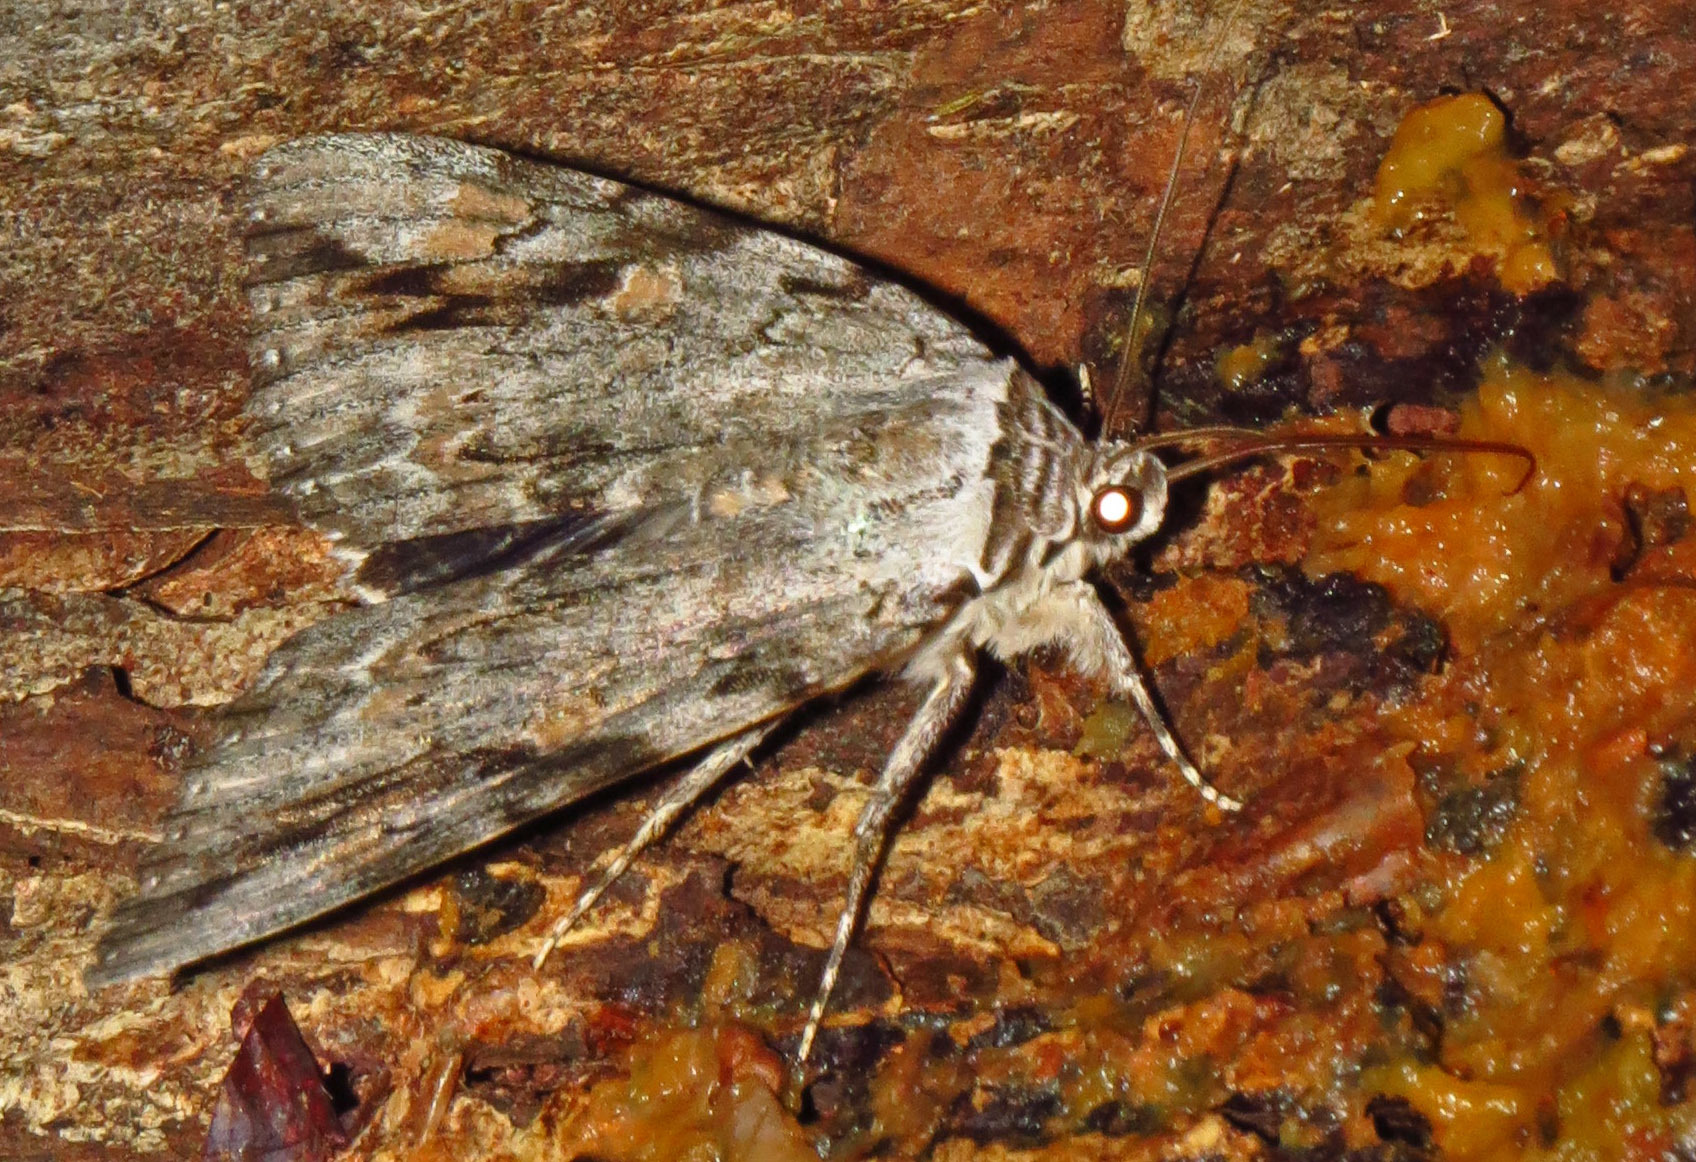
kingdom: Animalia
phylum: Arthropoda
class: Insecta
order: Lepidoptera
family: Erebidae
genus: Catocala
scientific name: Catocala maestosa
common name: Sad underwing
